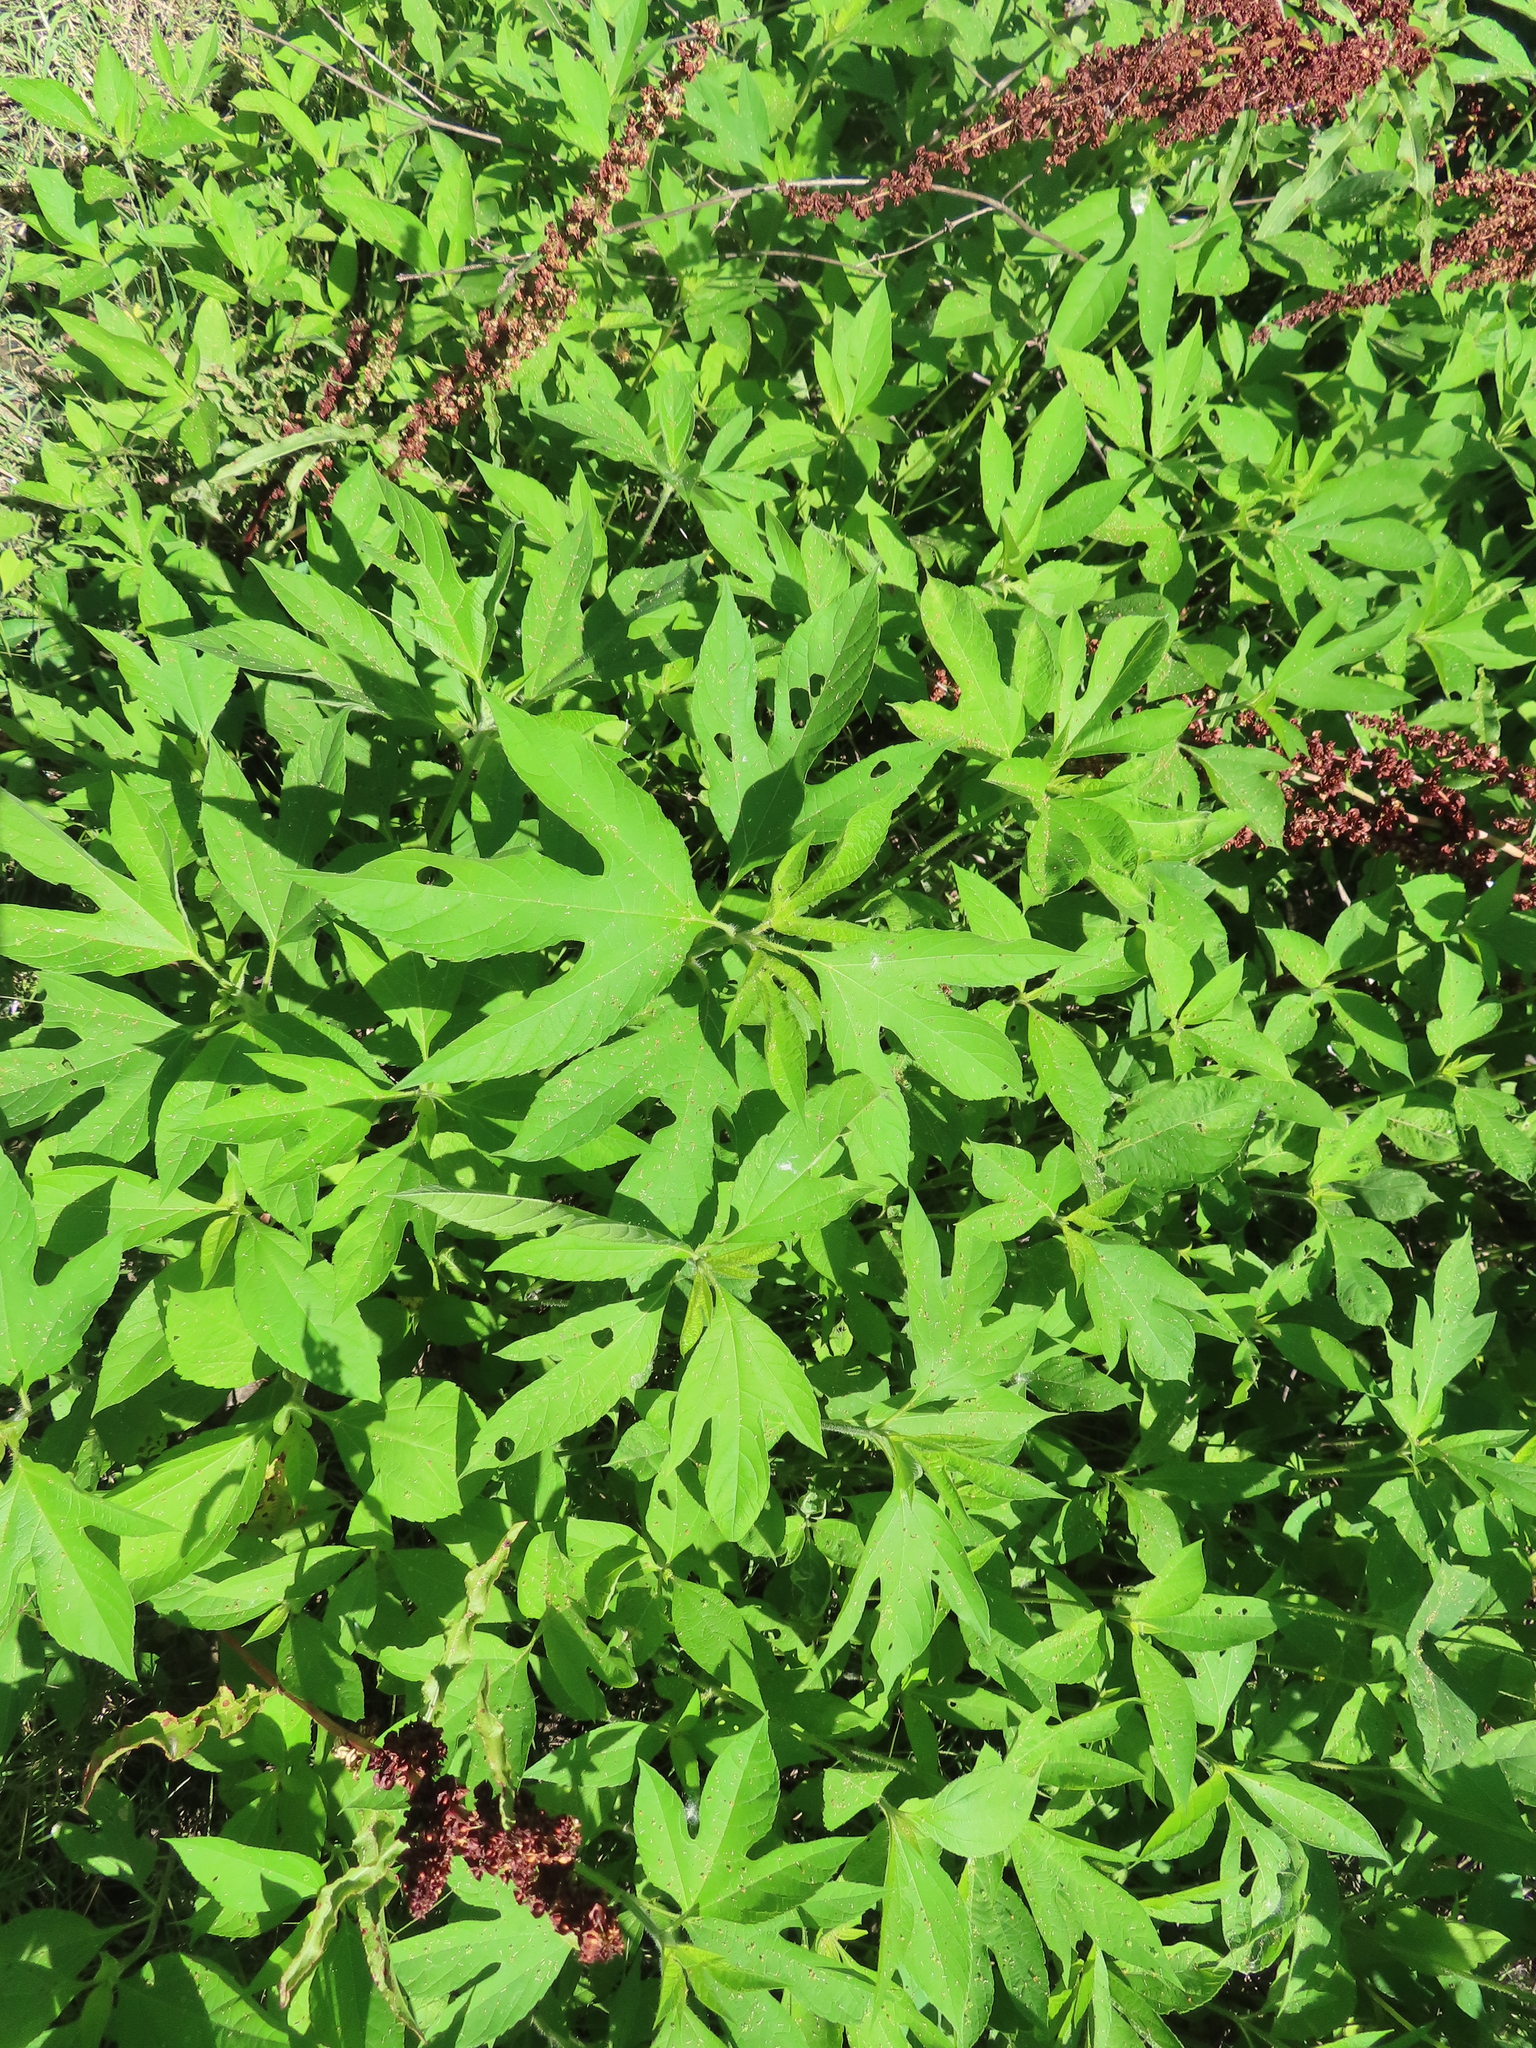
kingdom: Plantae
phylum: Tracheophyta
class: Magnoliopsida
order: Asterales
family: Asteraceae
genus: Ambrosia
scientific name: Ambrosia trifida
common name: Giant ragweed
